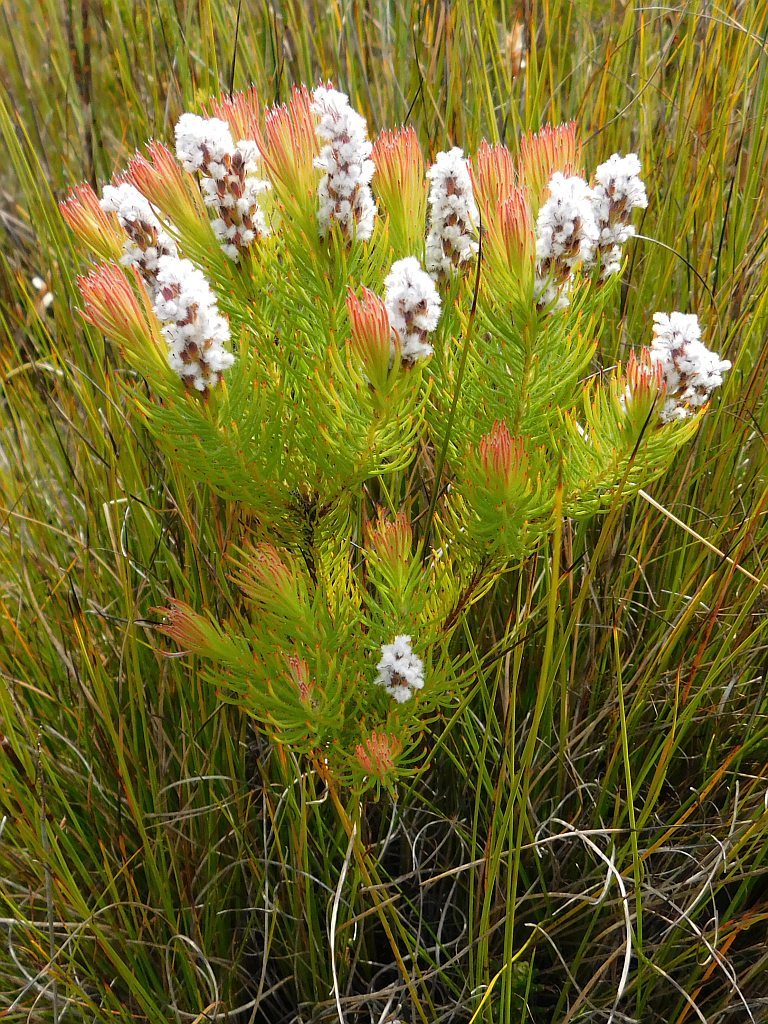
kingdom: Plantae
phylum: Tracheophyta
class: Magnoliopsida
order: Proteales
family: Proteaceae
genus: Spatalla
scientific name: Spatalla mollis
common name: Woolly spoon
